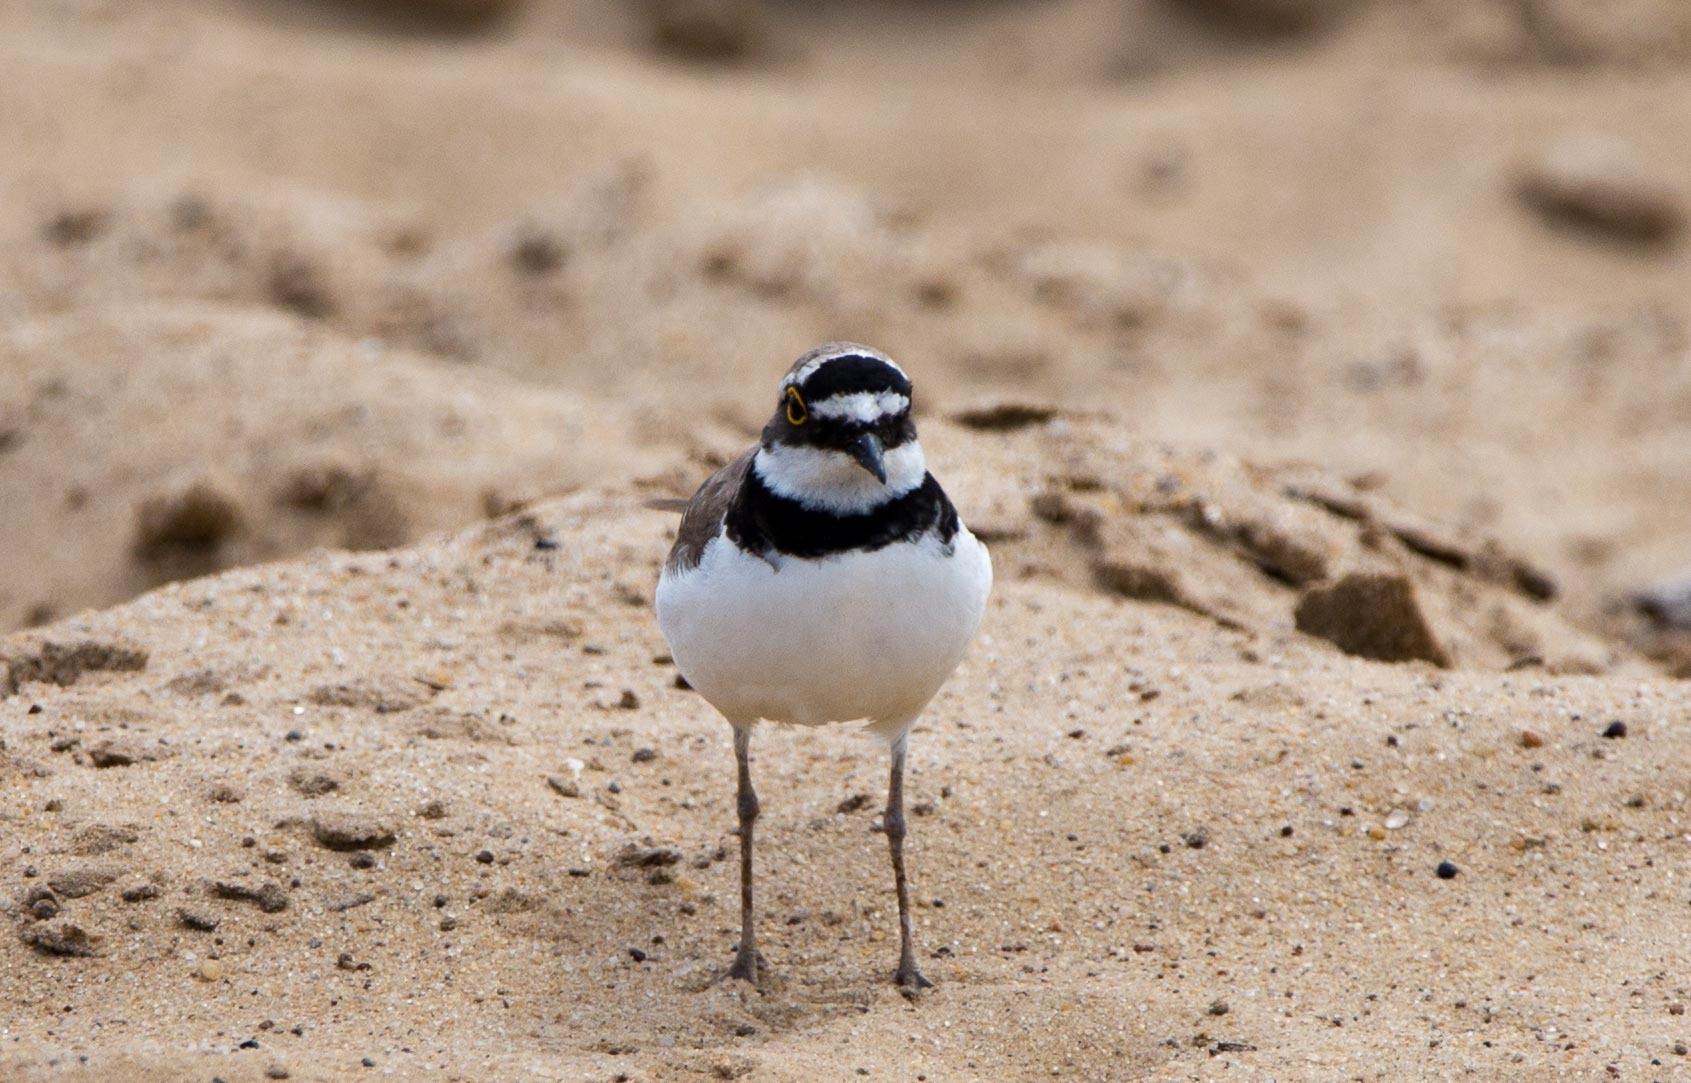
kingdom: Animalia
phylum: Chordata
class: Aves
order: Charadriiformes
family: Charadriidae
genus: Charadrius
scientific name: Charadrius dubius
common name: Little ringed plover
